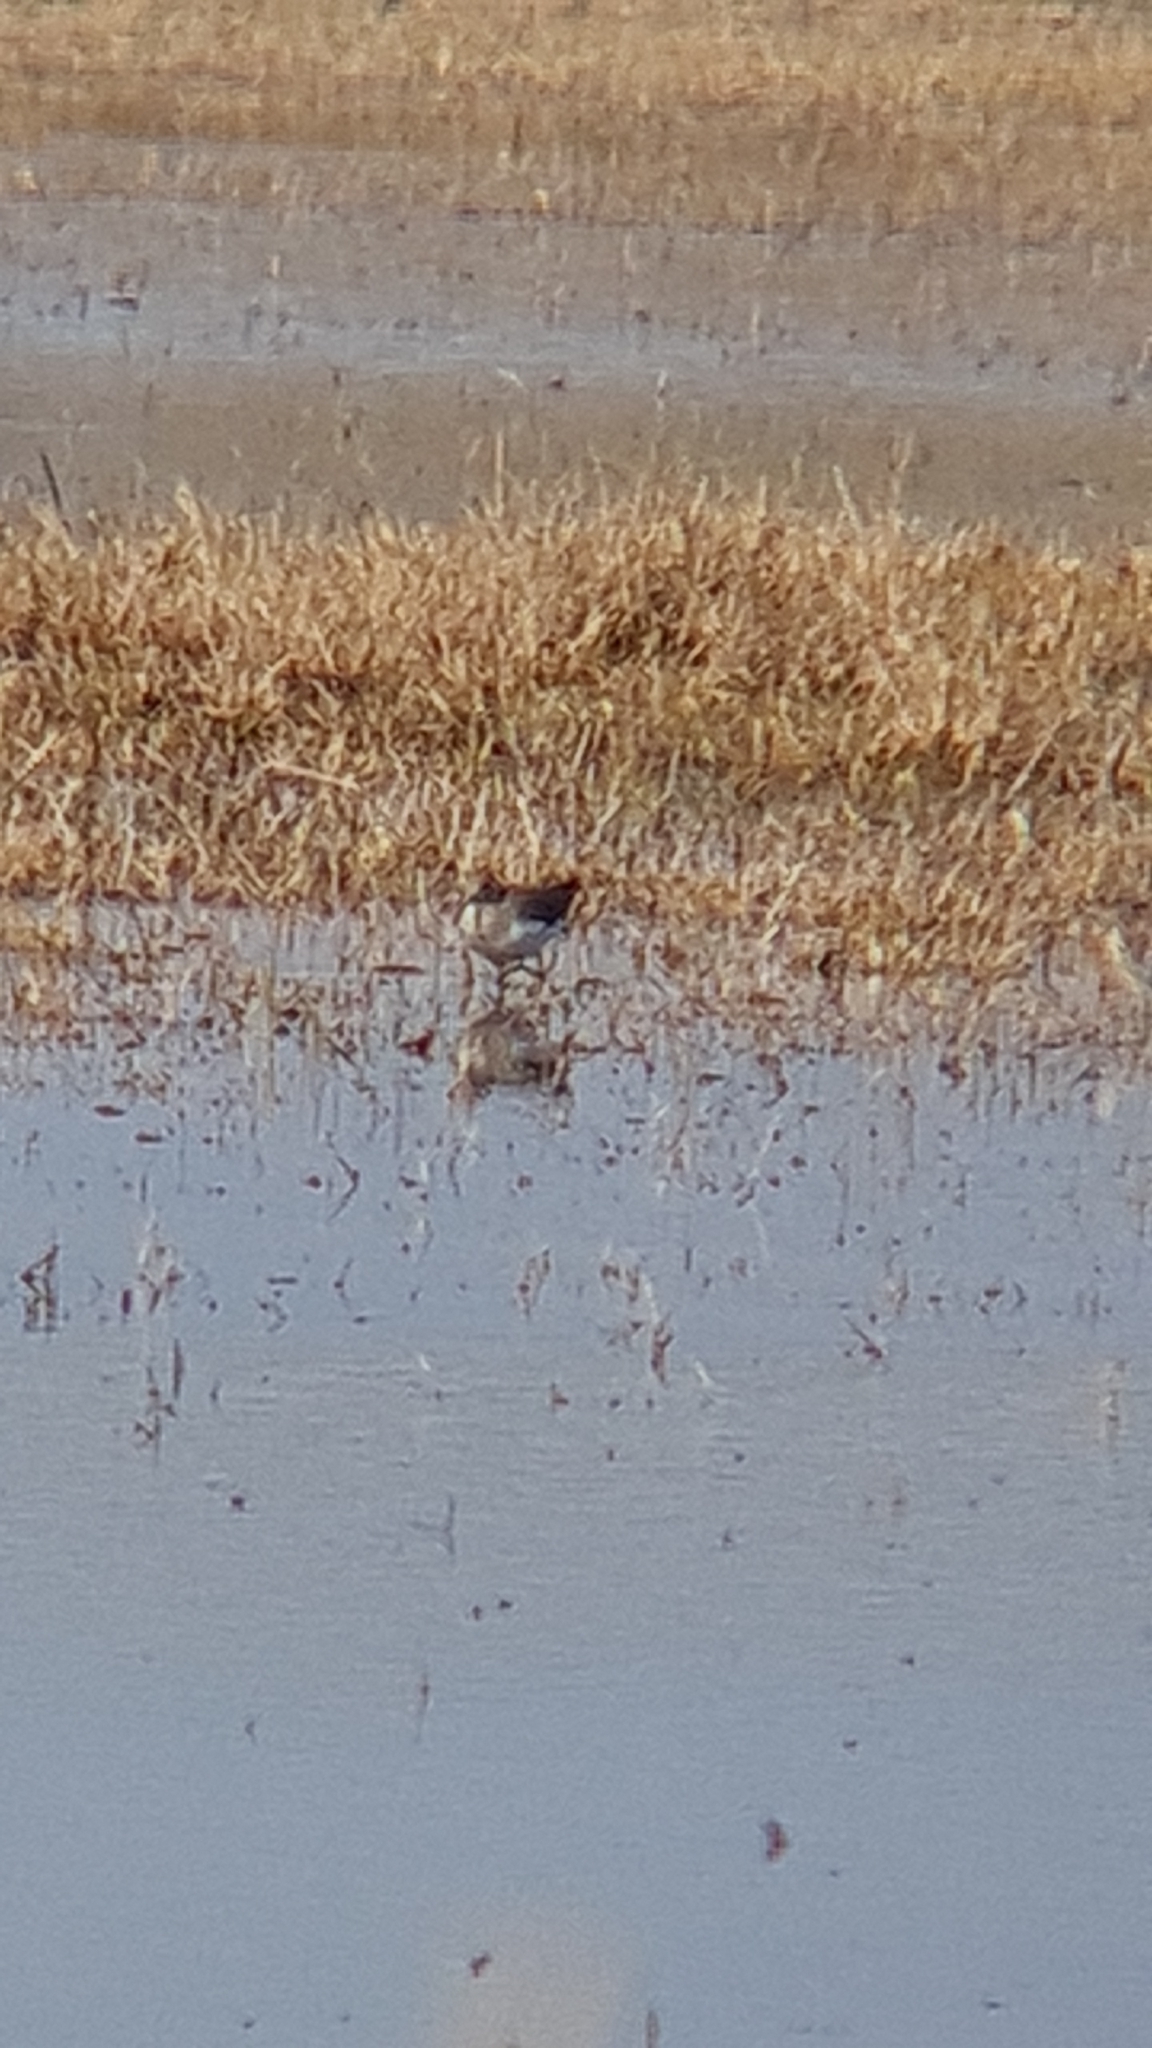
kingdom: Animalia
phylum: Chordata
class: Aves
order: Charadriiformes
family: Scolopacidae
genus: Tringa
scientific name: Tringa ochropus
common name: Green sandpiper
